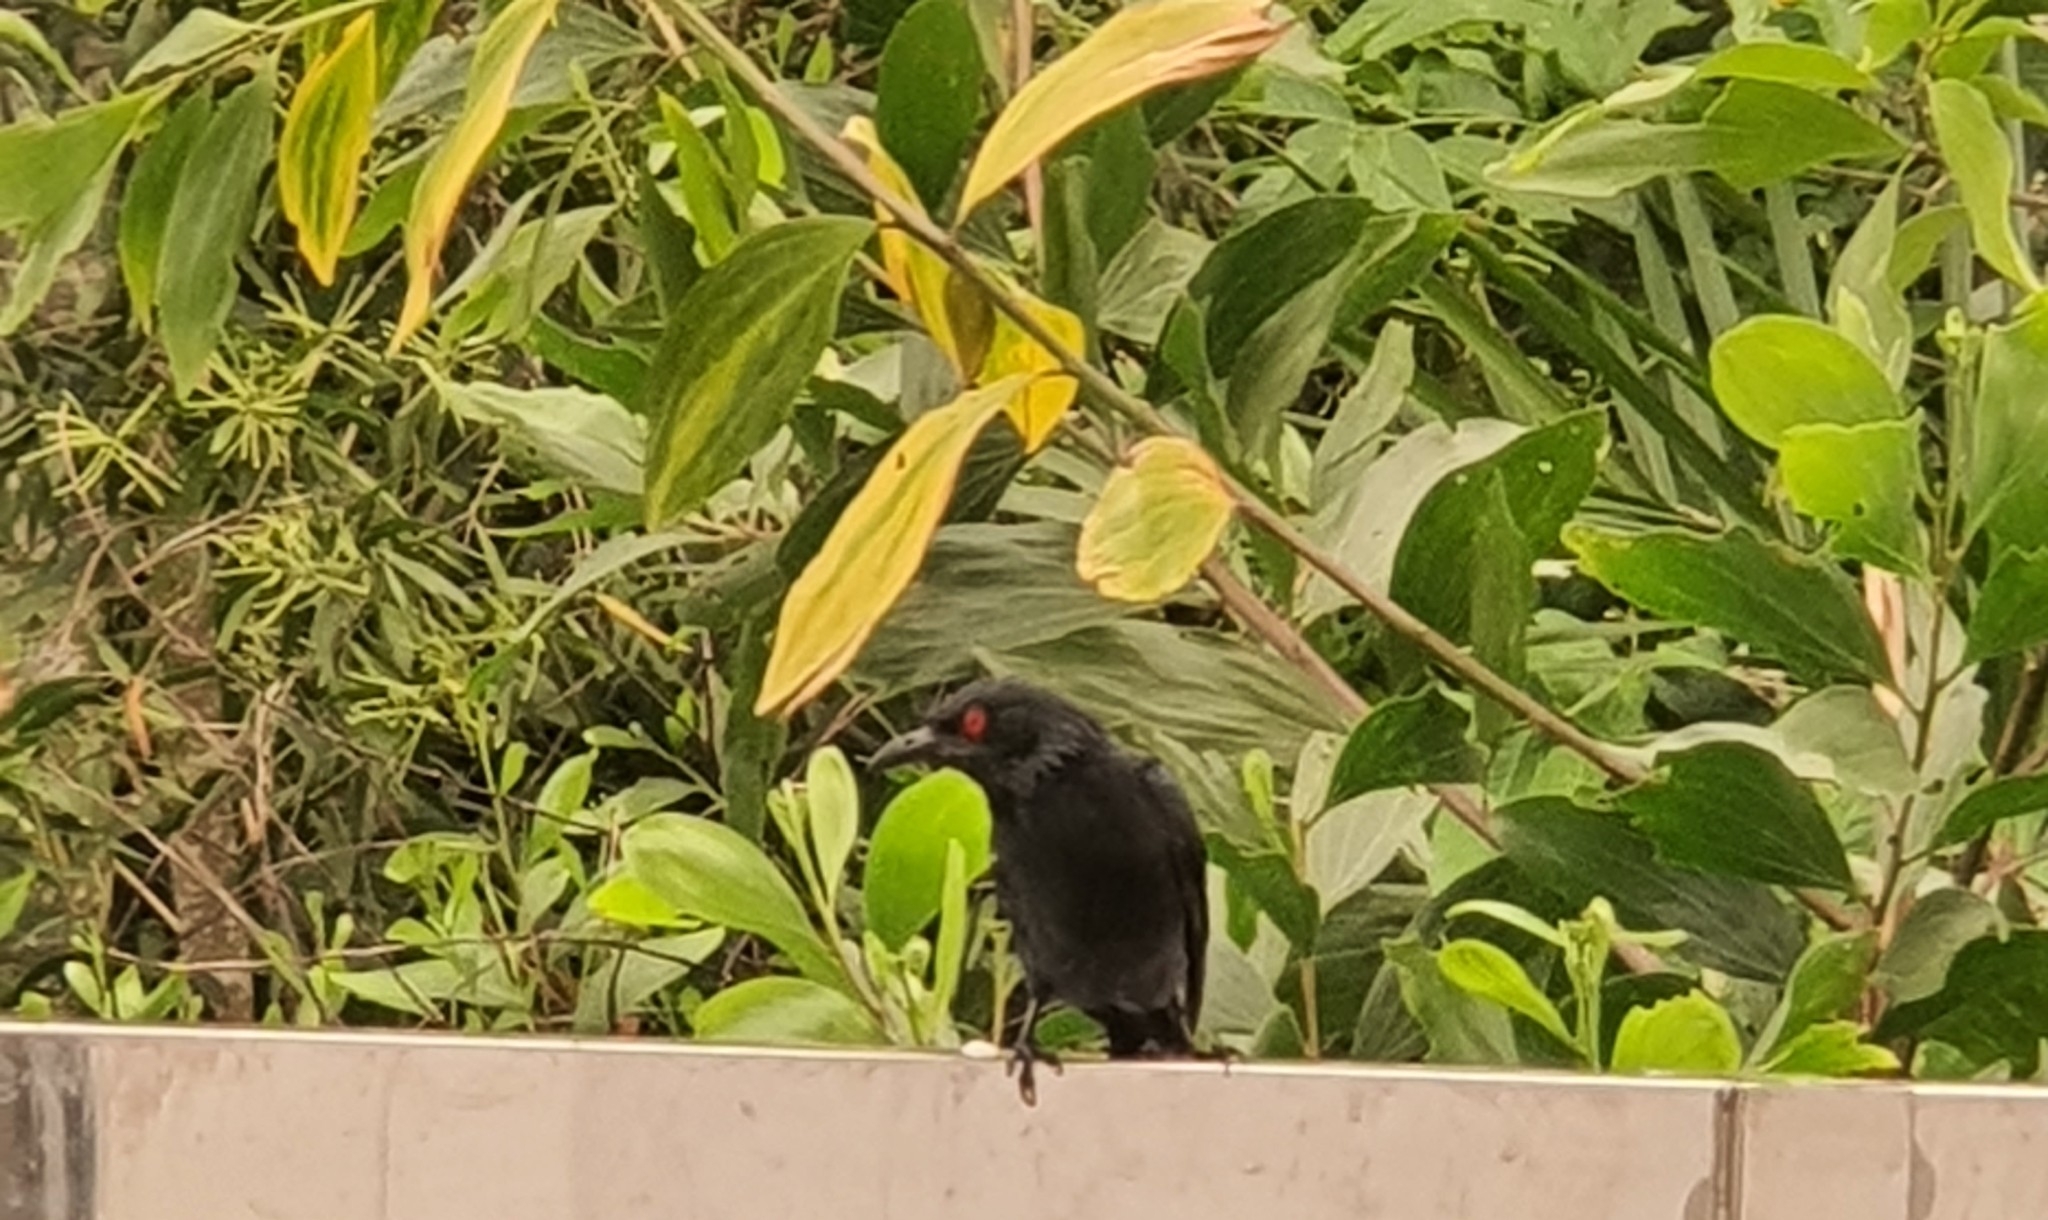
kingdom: Animalia
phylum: Chordata
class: Aves
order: Passeriformes
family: Sturnidae
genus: Aplonis
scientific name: Aplonis panayensis
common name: Asian glossy starling
